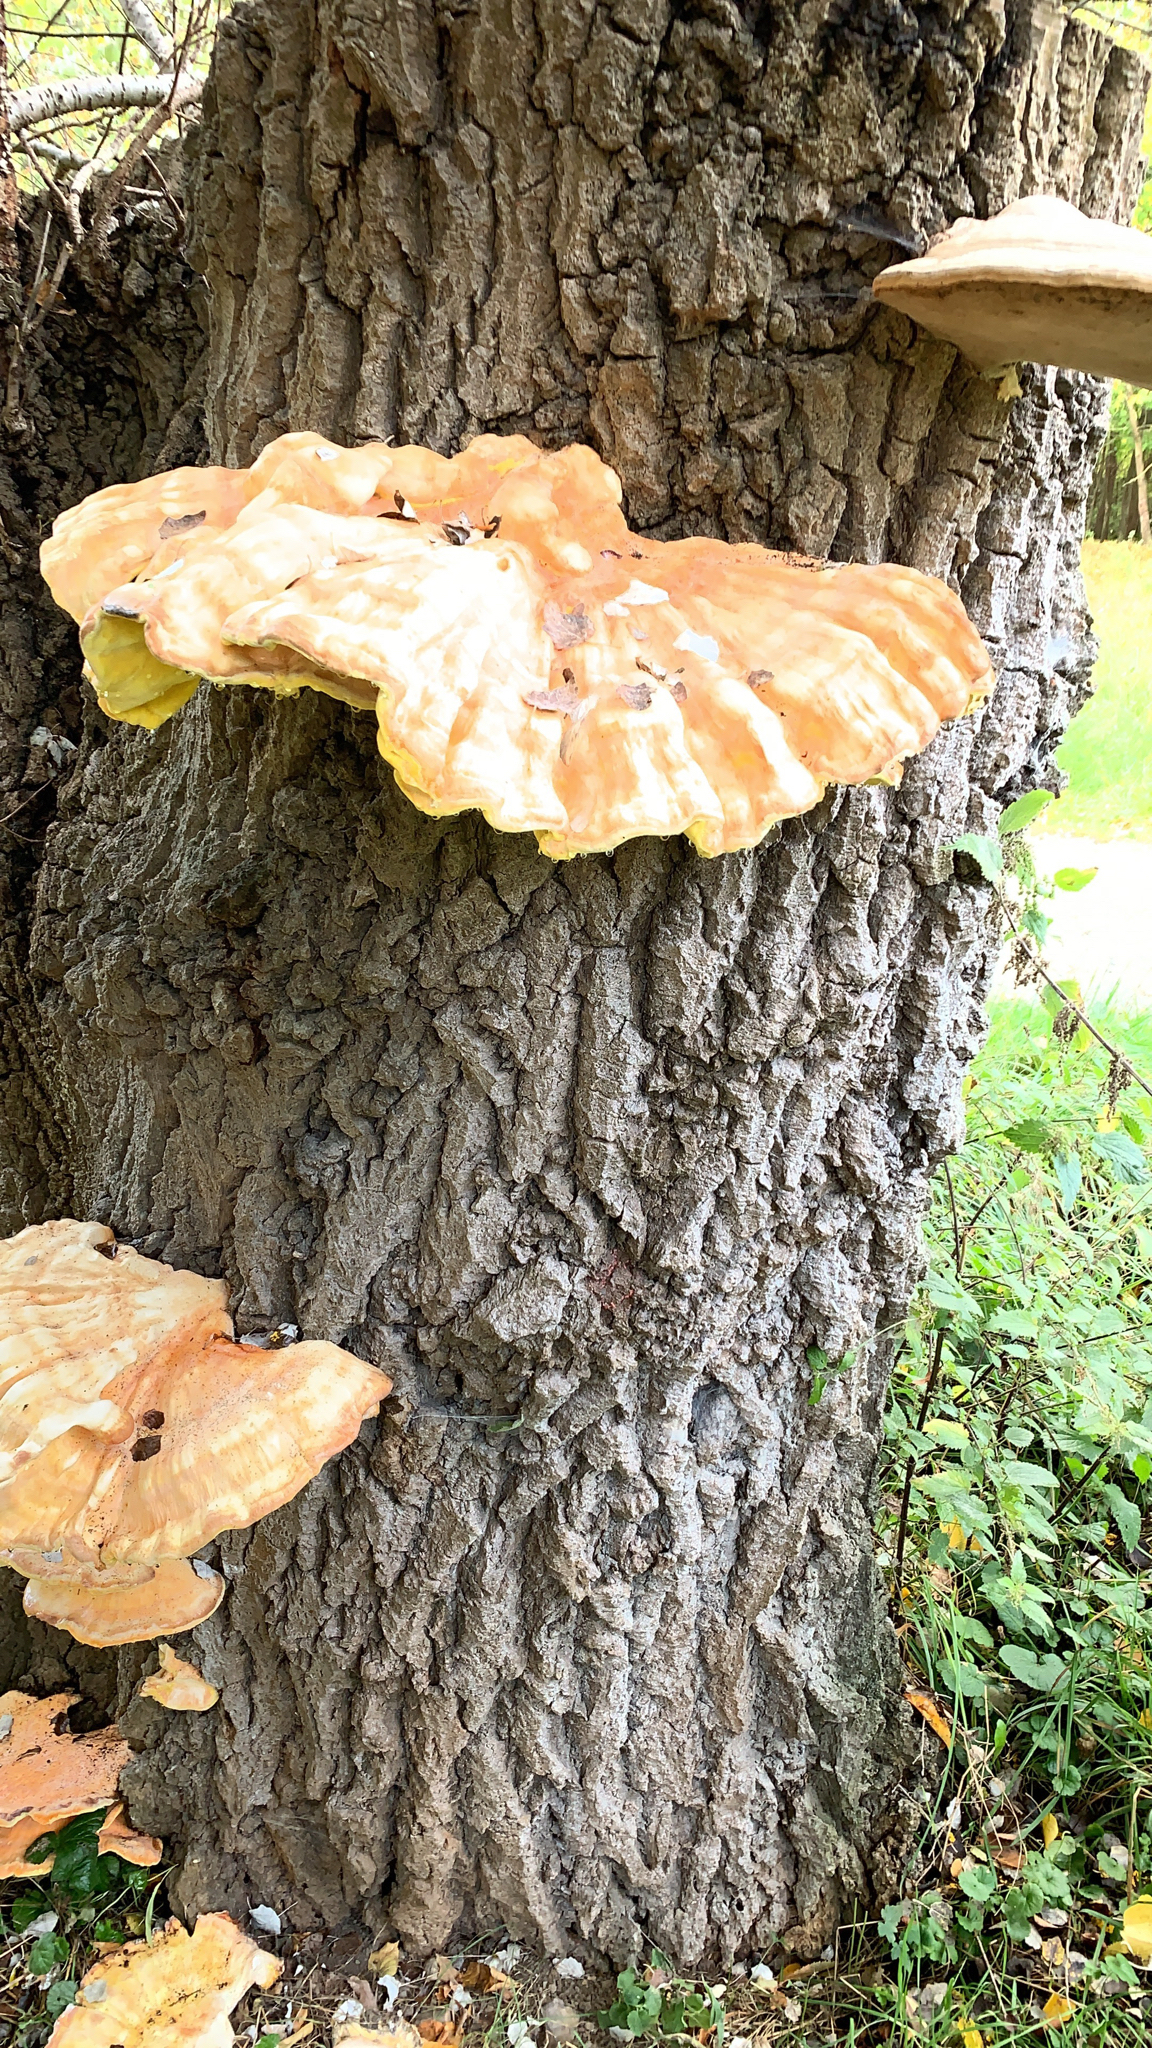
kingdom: Fungi
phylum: Basidiomycota
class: Agaricomycetes
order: Polyporales
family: Laetiporaceae
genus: Laetiporus
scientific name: Laetiporus sulphureus
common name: Chicken of the woods
